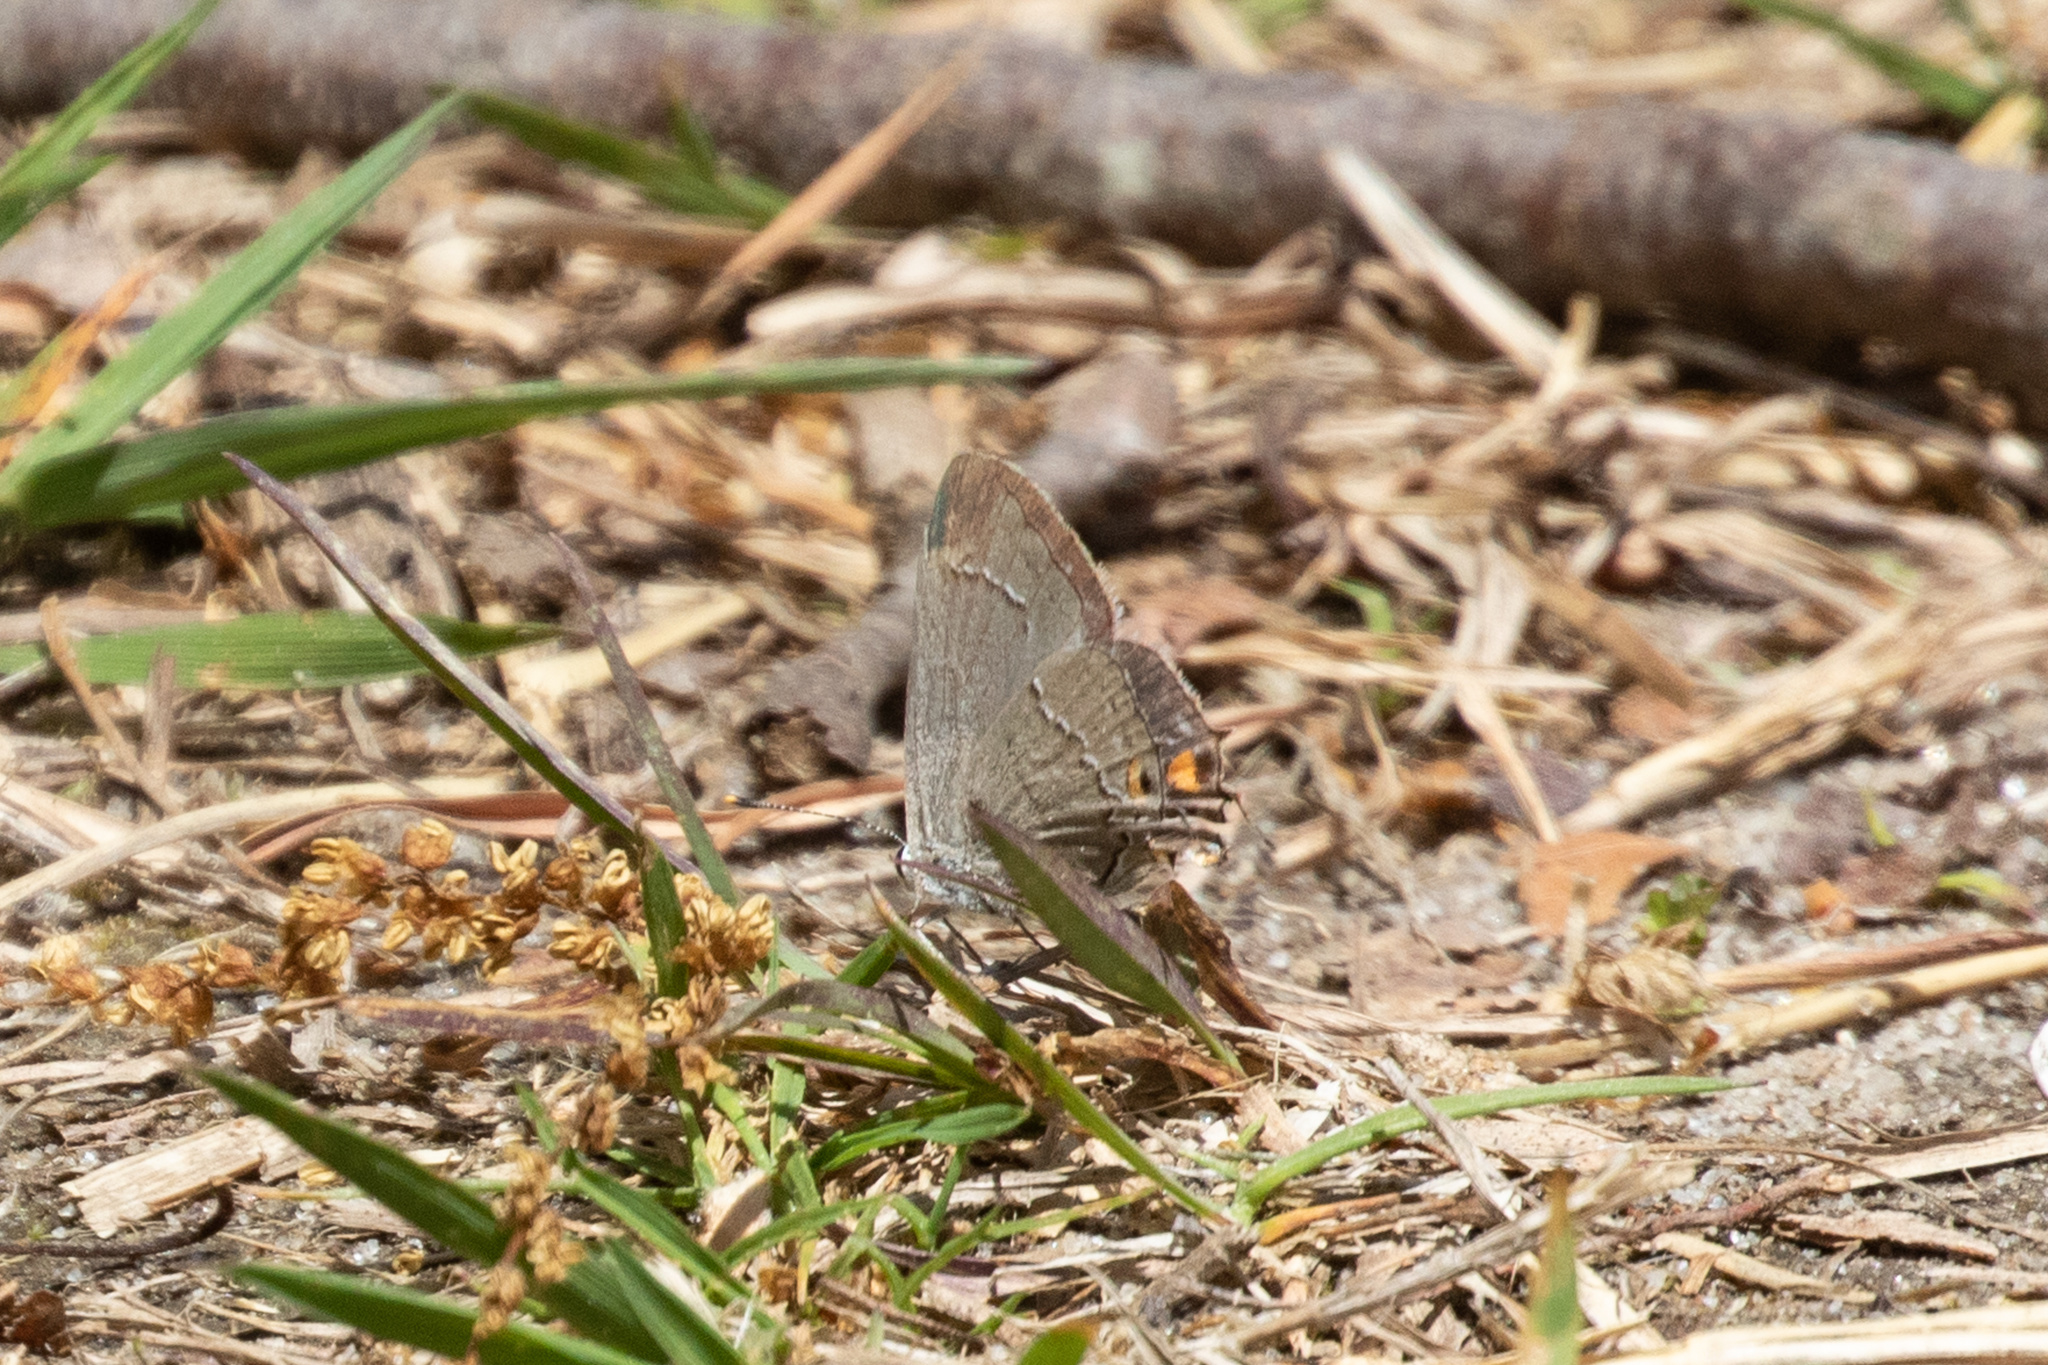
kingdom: Animalia
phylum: Arthropoda
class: Insecta
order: Lepidoptera
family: Lycaenidae
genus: Strymon
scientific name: Strymon melinus
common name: Gray hairstreak
